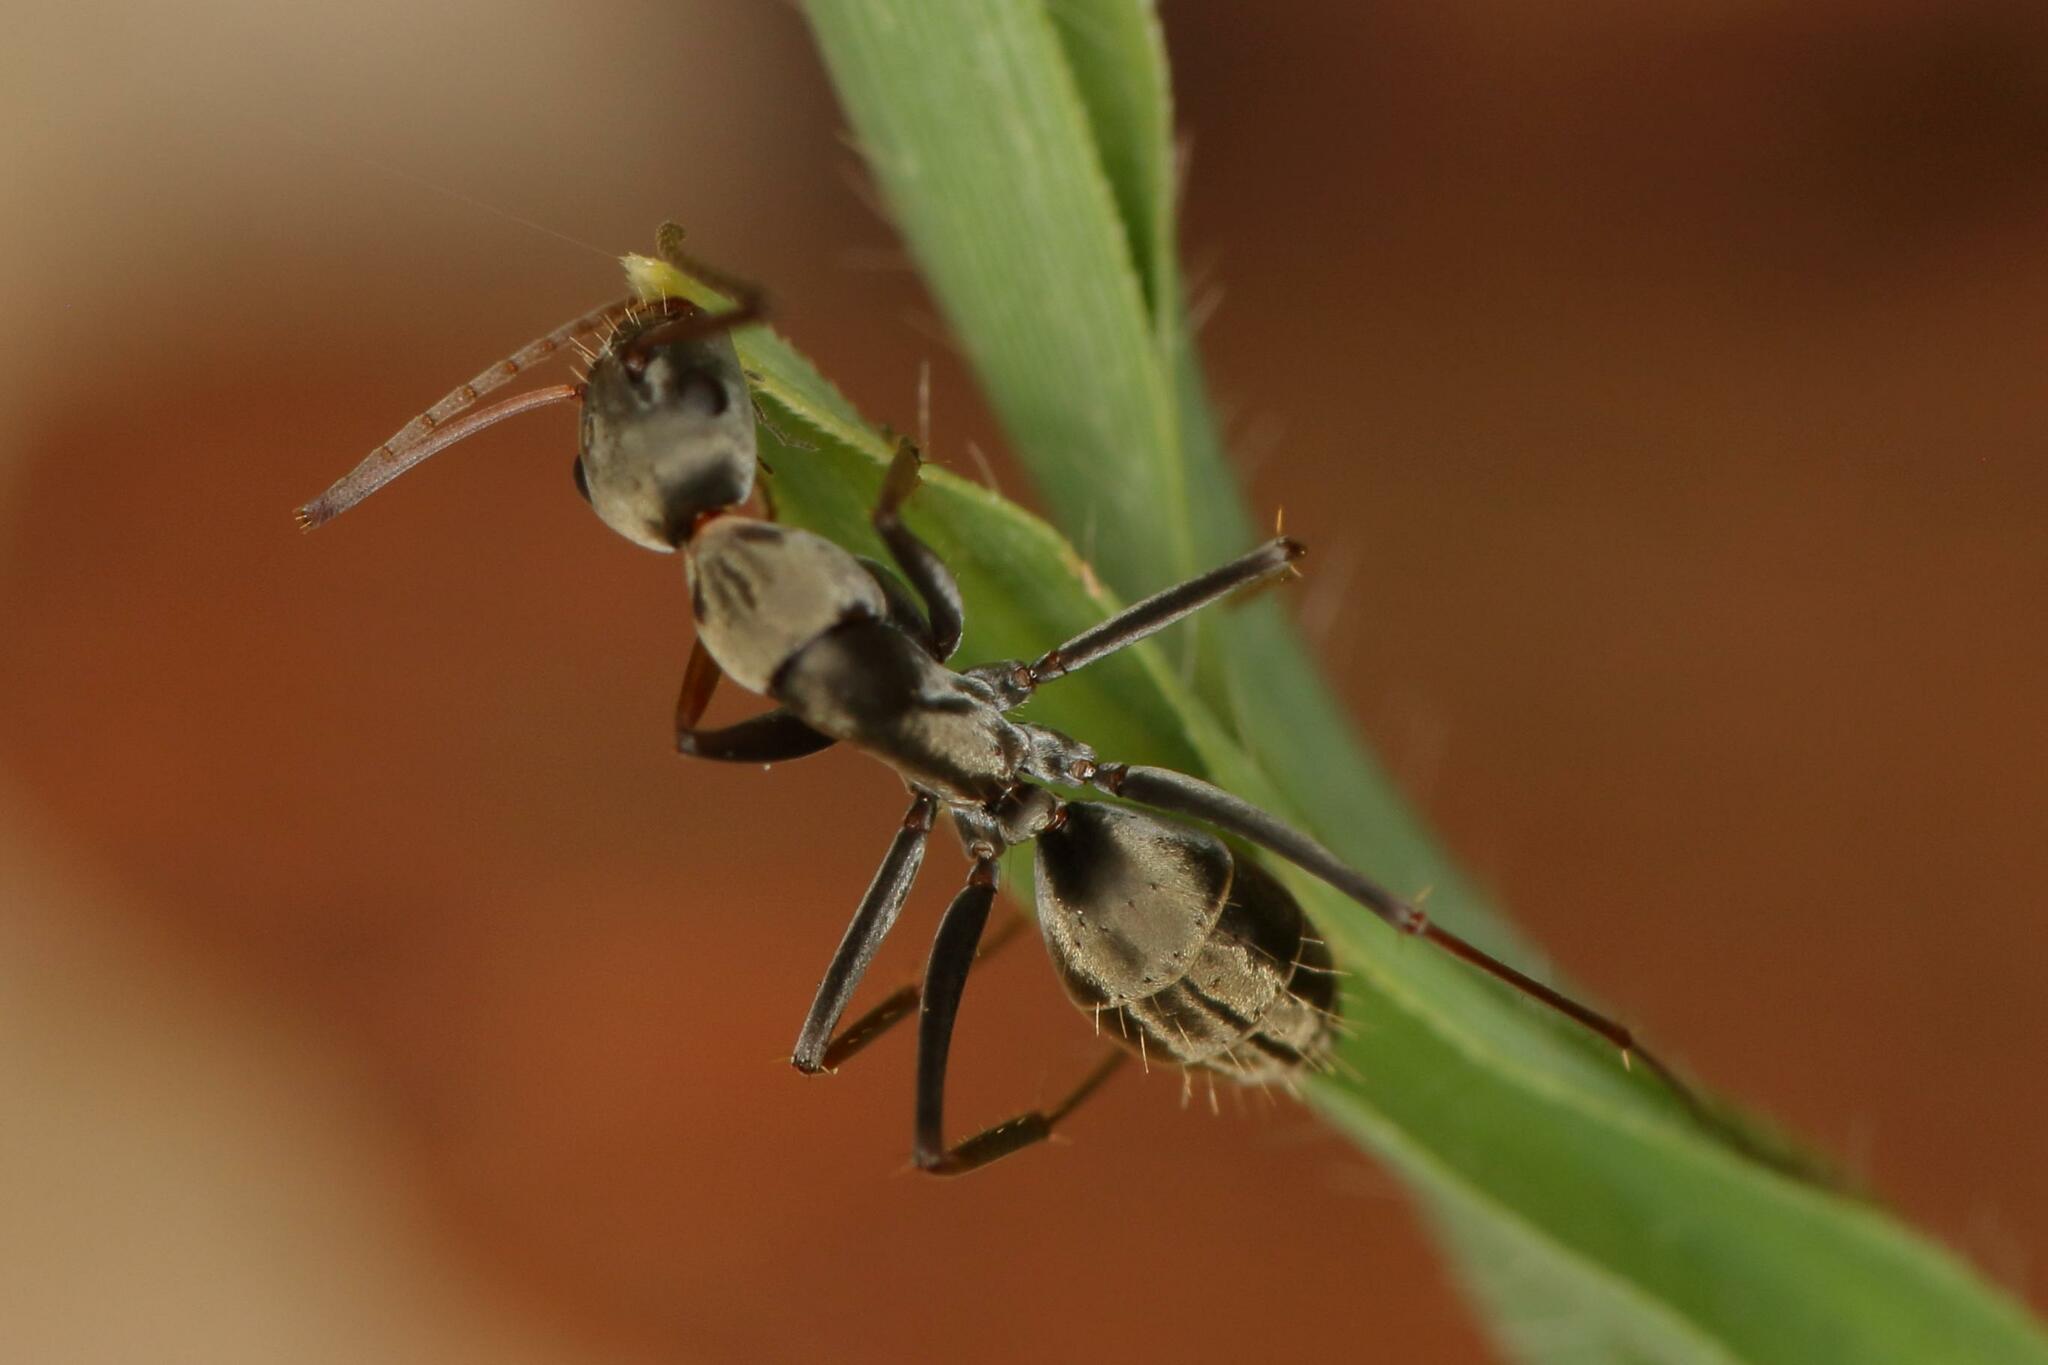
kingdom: Animalia
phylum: Arthropoda
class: Insecta
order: Hymenoptera
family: Formicidae
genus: Camponotus
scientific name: Camponotus vestitus
